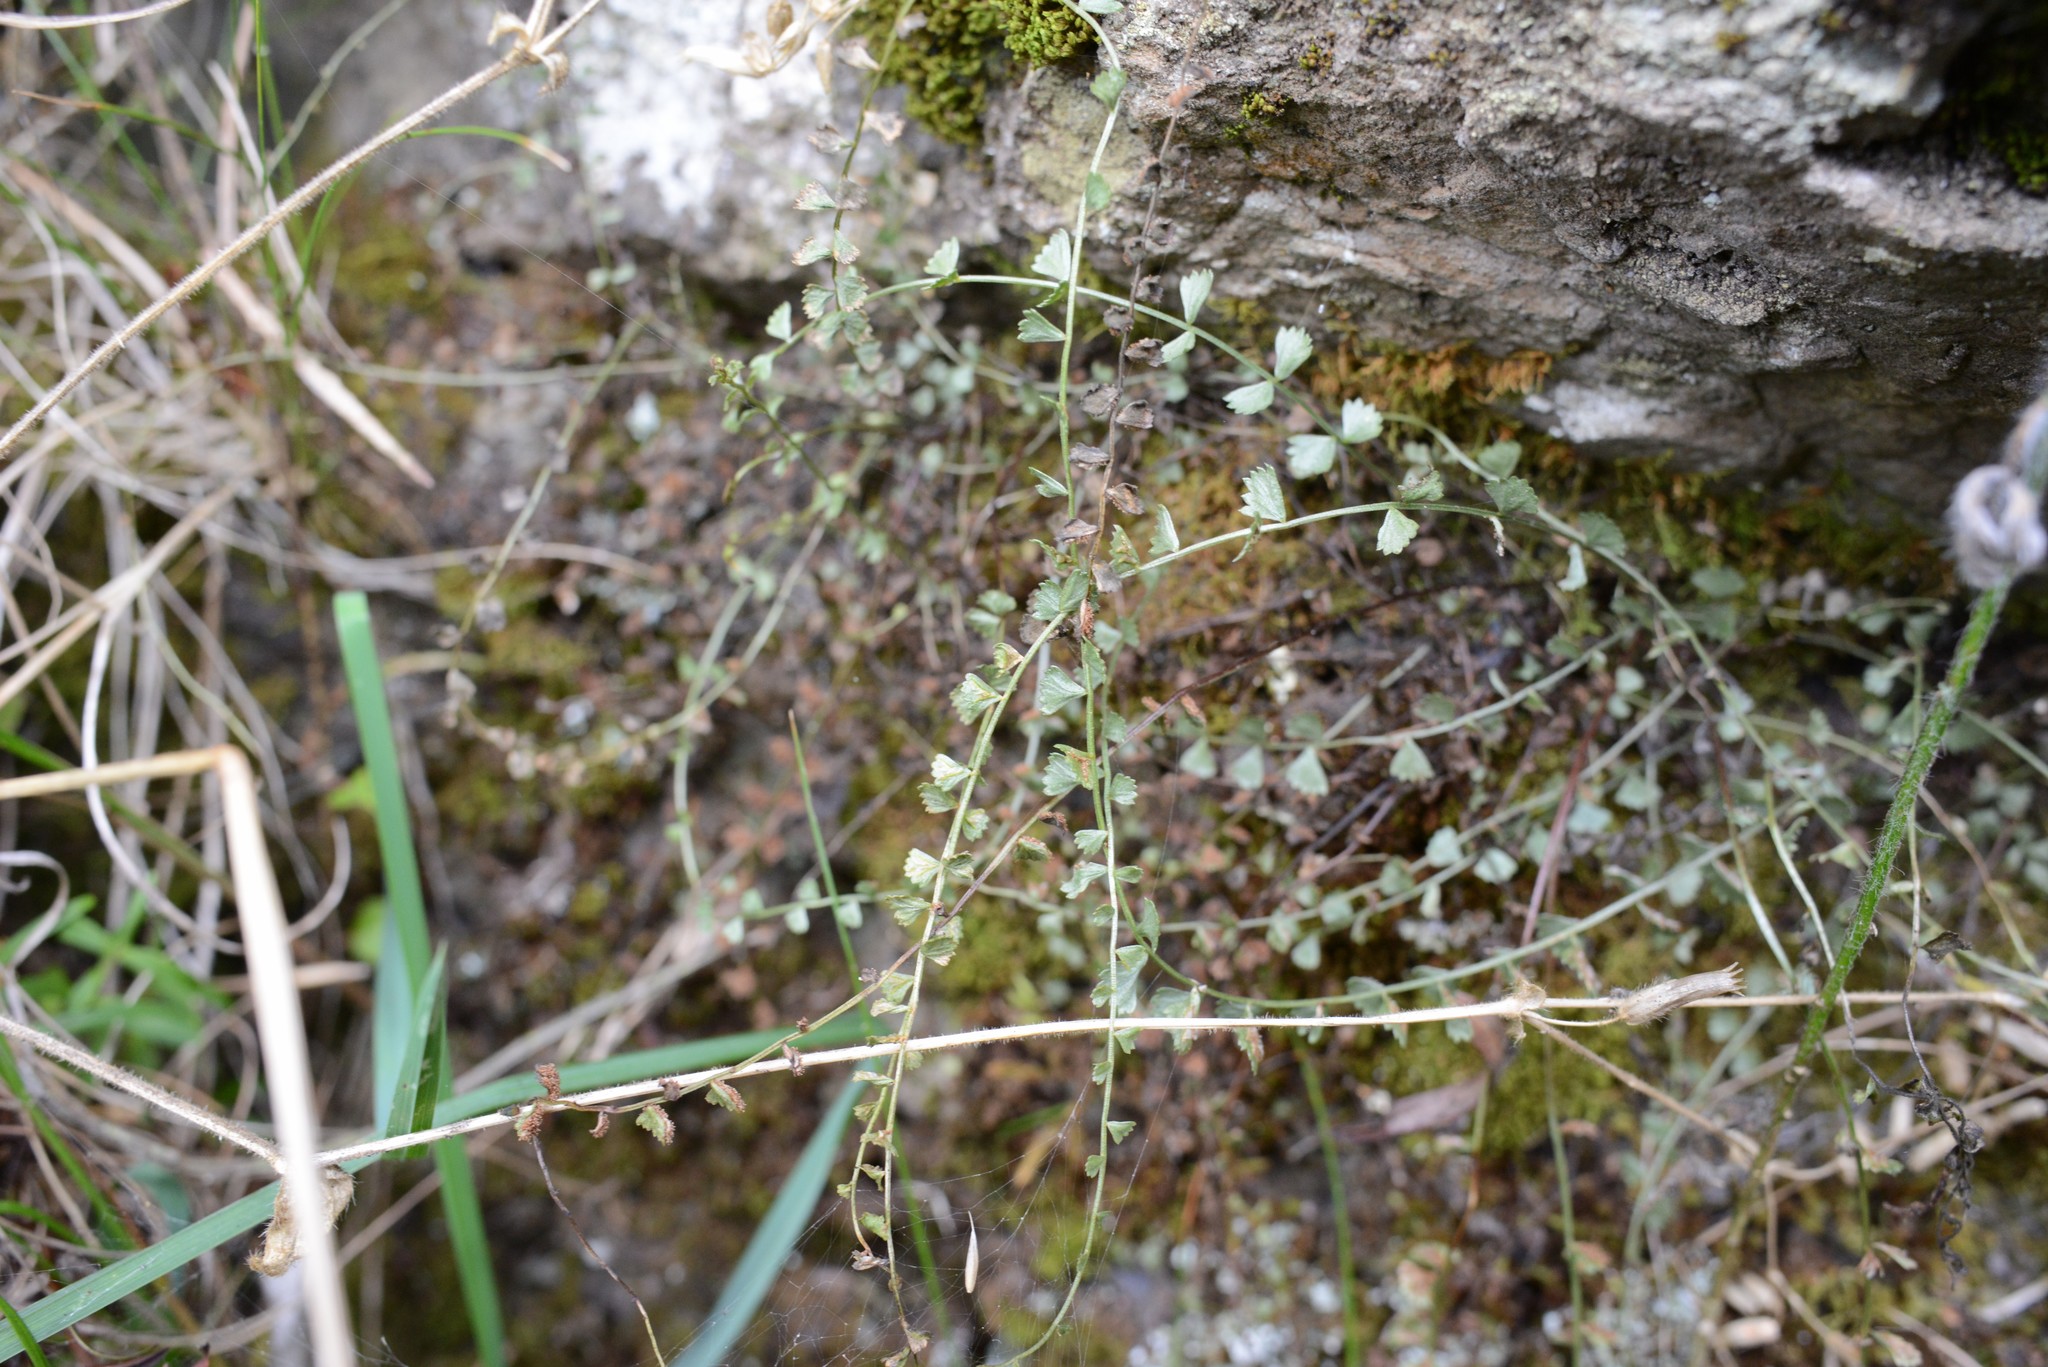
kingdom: Plantae
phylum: Tracheophyta
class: Polypodiopsida
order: Polypodiales
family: Aspleniaceae
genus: Asplenium
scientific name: Asplenium flabellifolium
